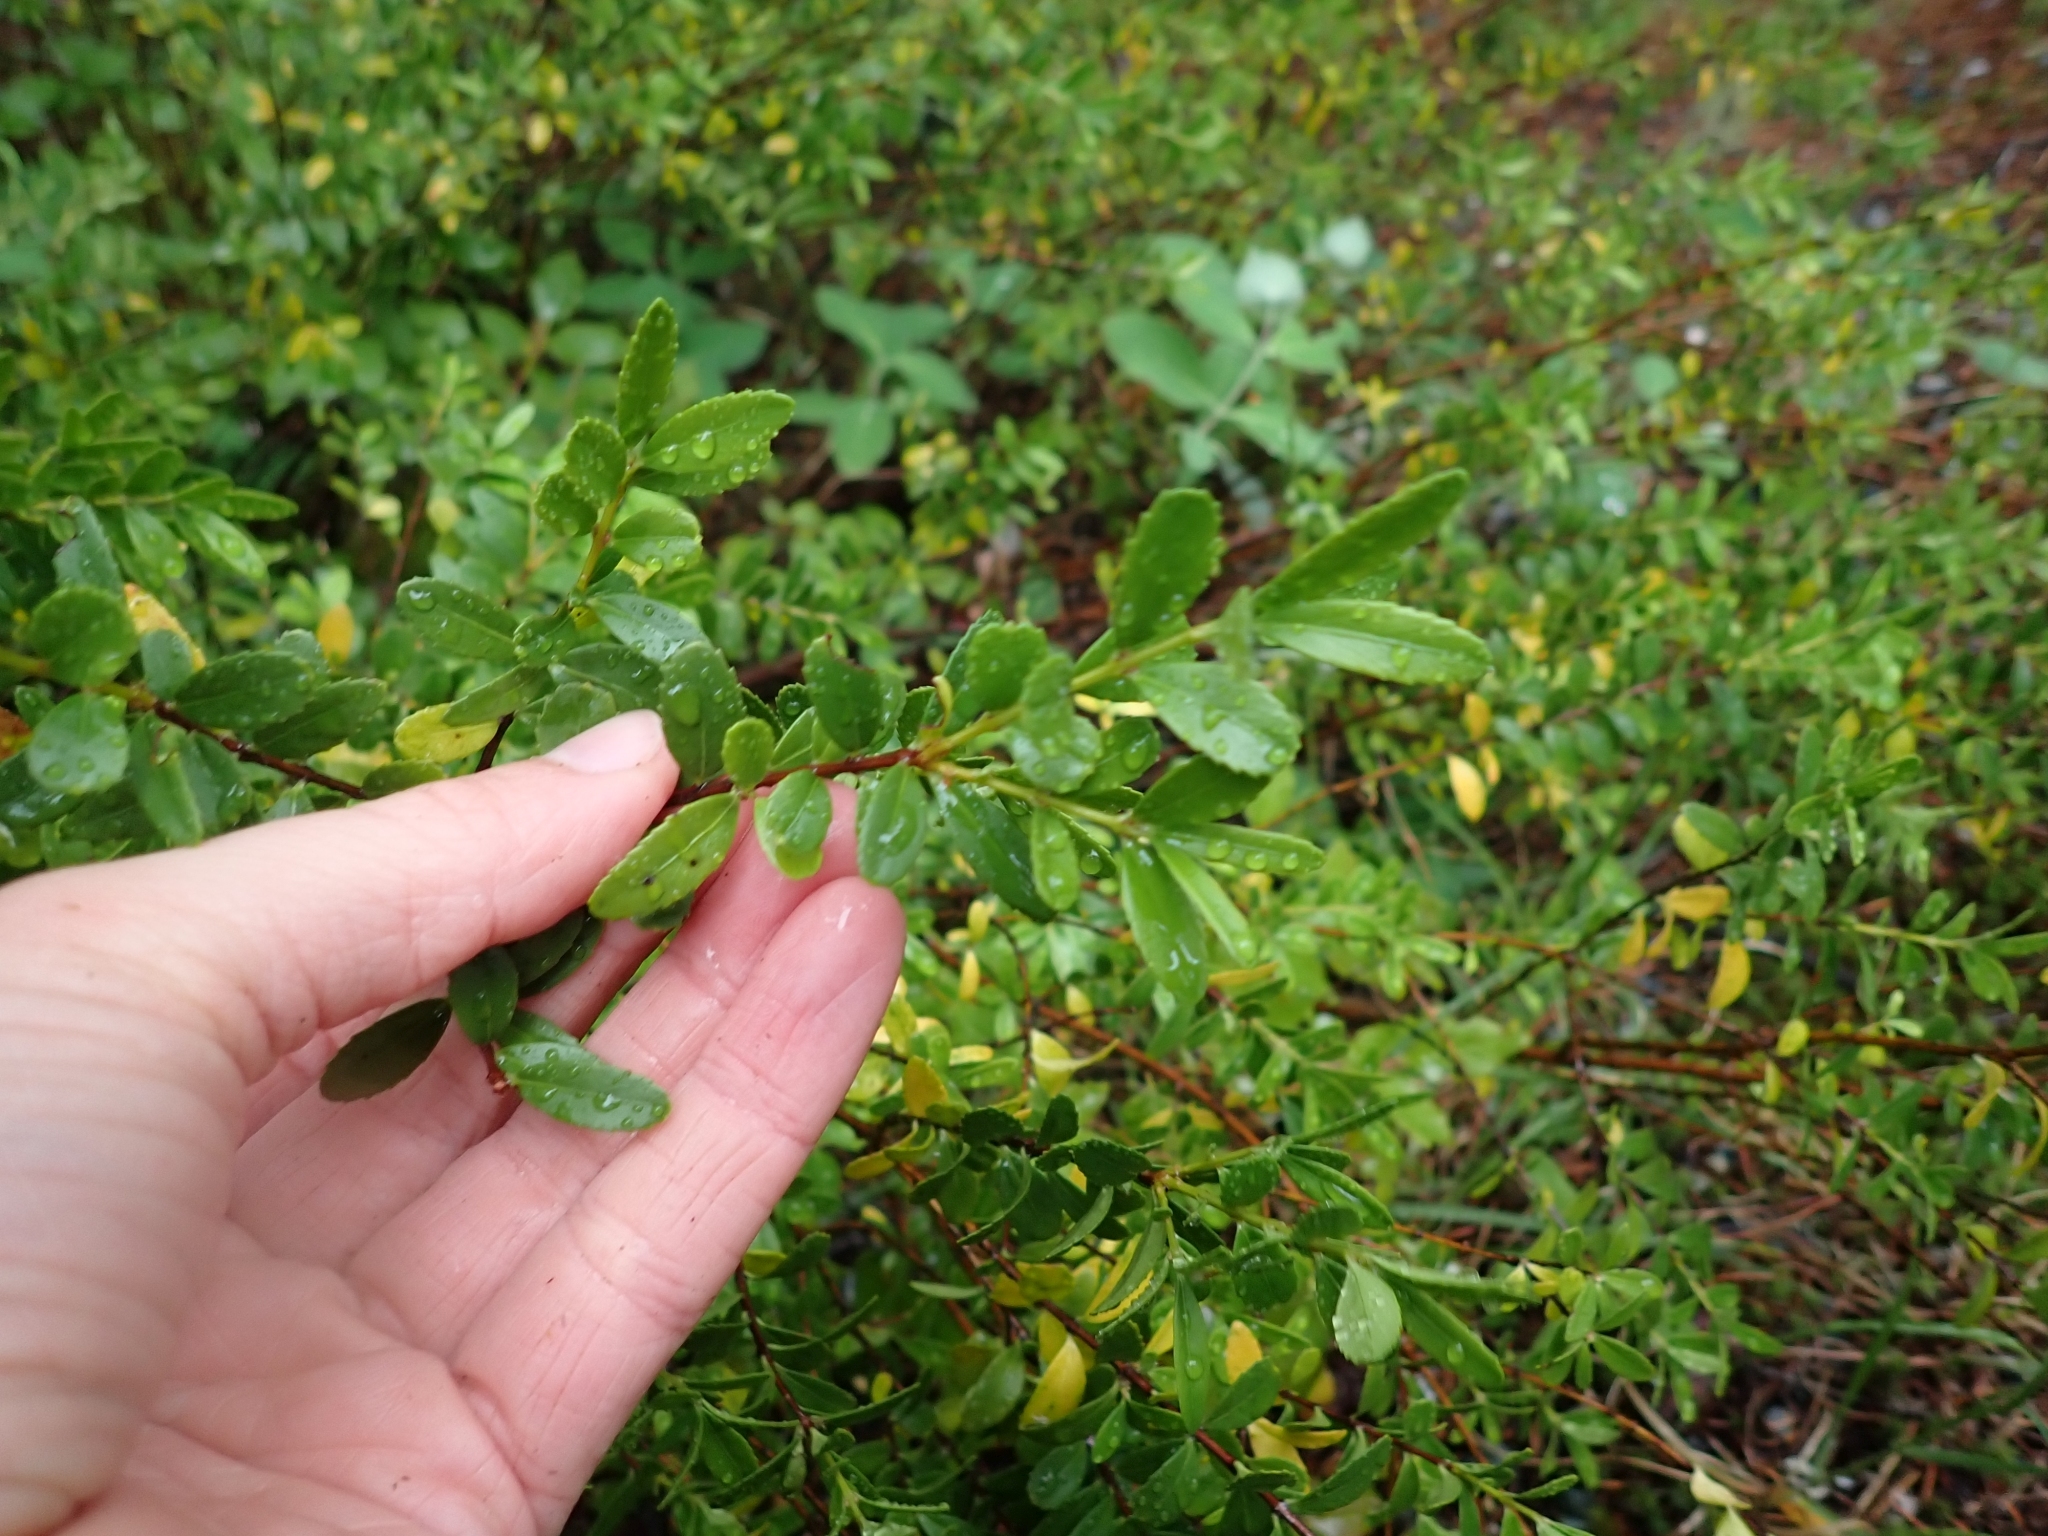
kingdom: Plantae
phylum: Tracheophyta
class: Magnoliopsida
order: Celastrales
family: Celastraceae
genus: Paxistima
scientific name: Paxistima myrsinites
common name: Mountain-lover
